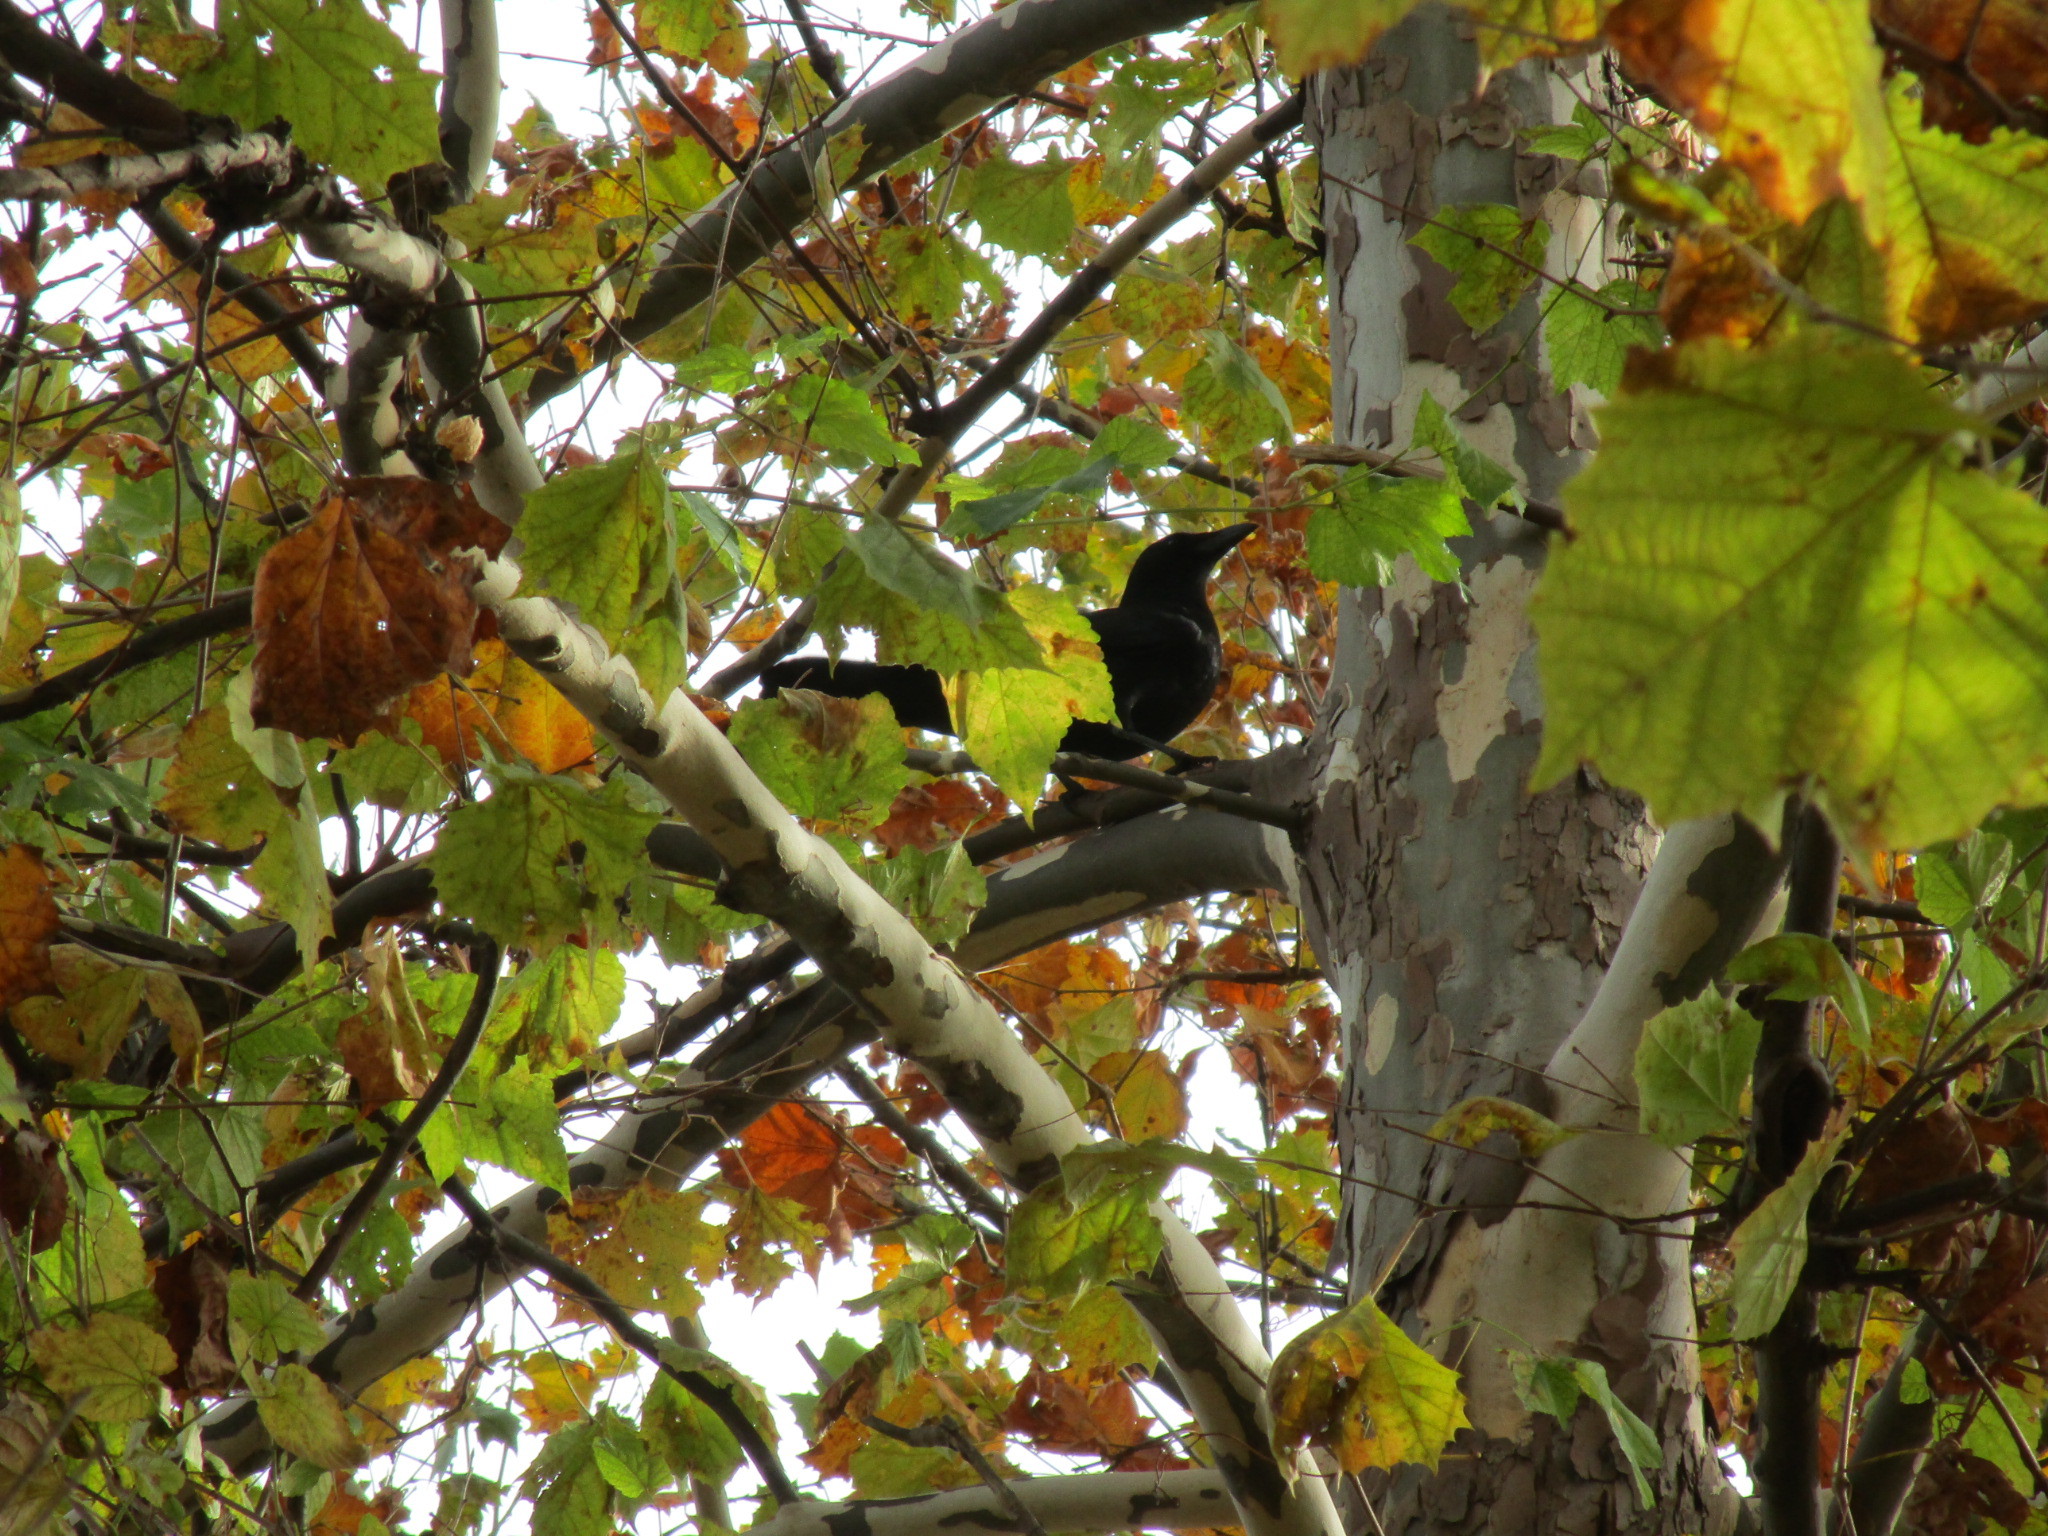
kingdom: Animalia
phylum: Chordata
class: Aves
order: Passeriformes
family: Corvidae
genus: Corvus
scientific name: Corvus brachyrhynchos
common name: American crow
